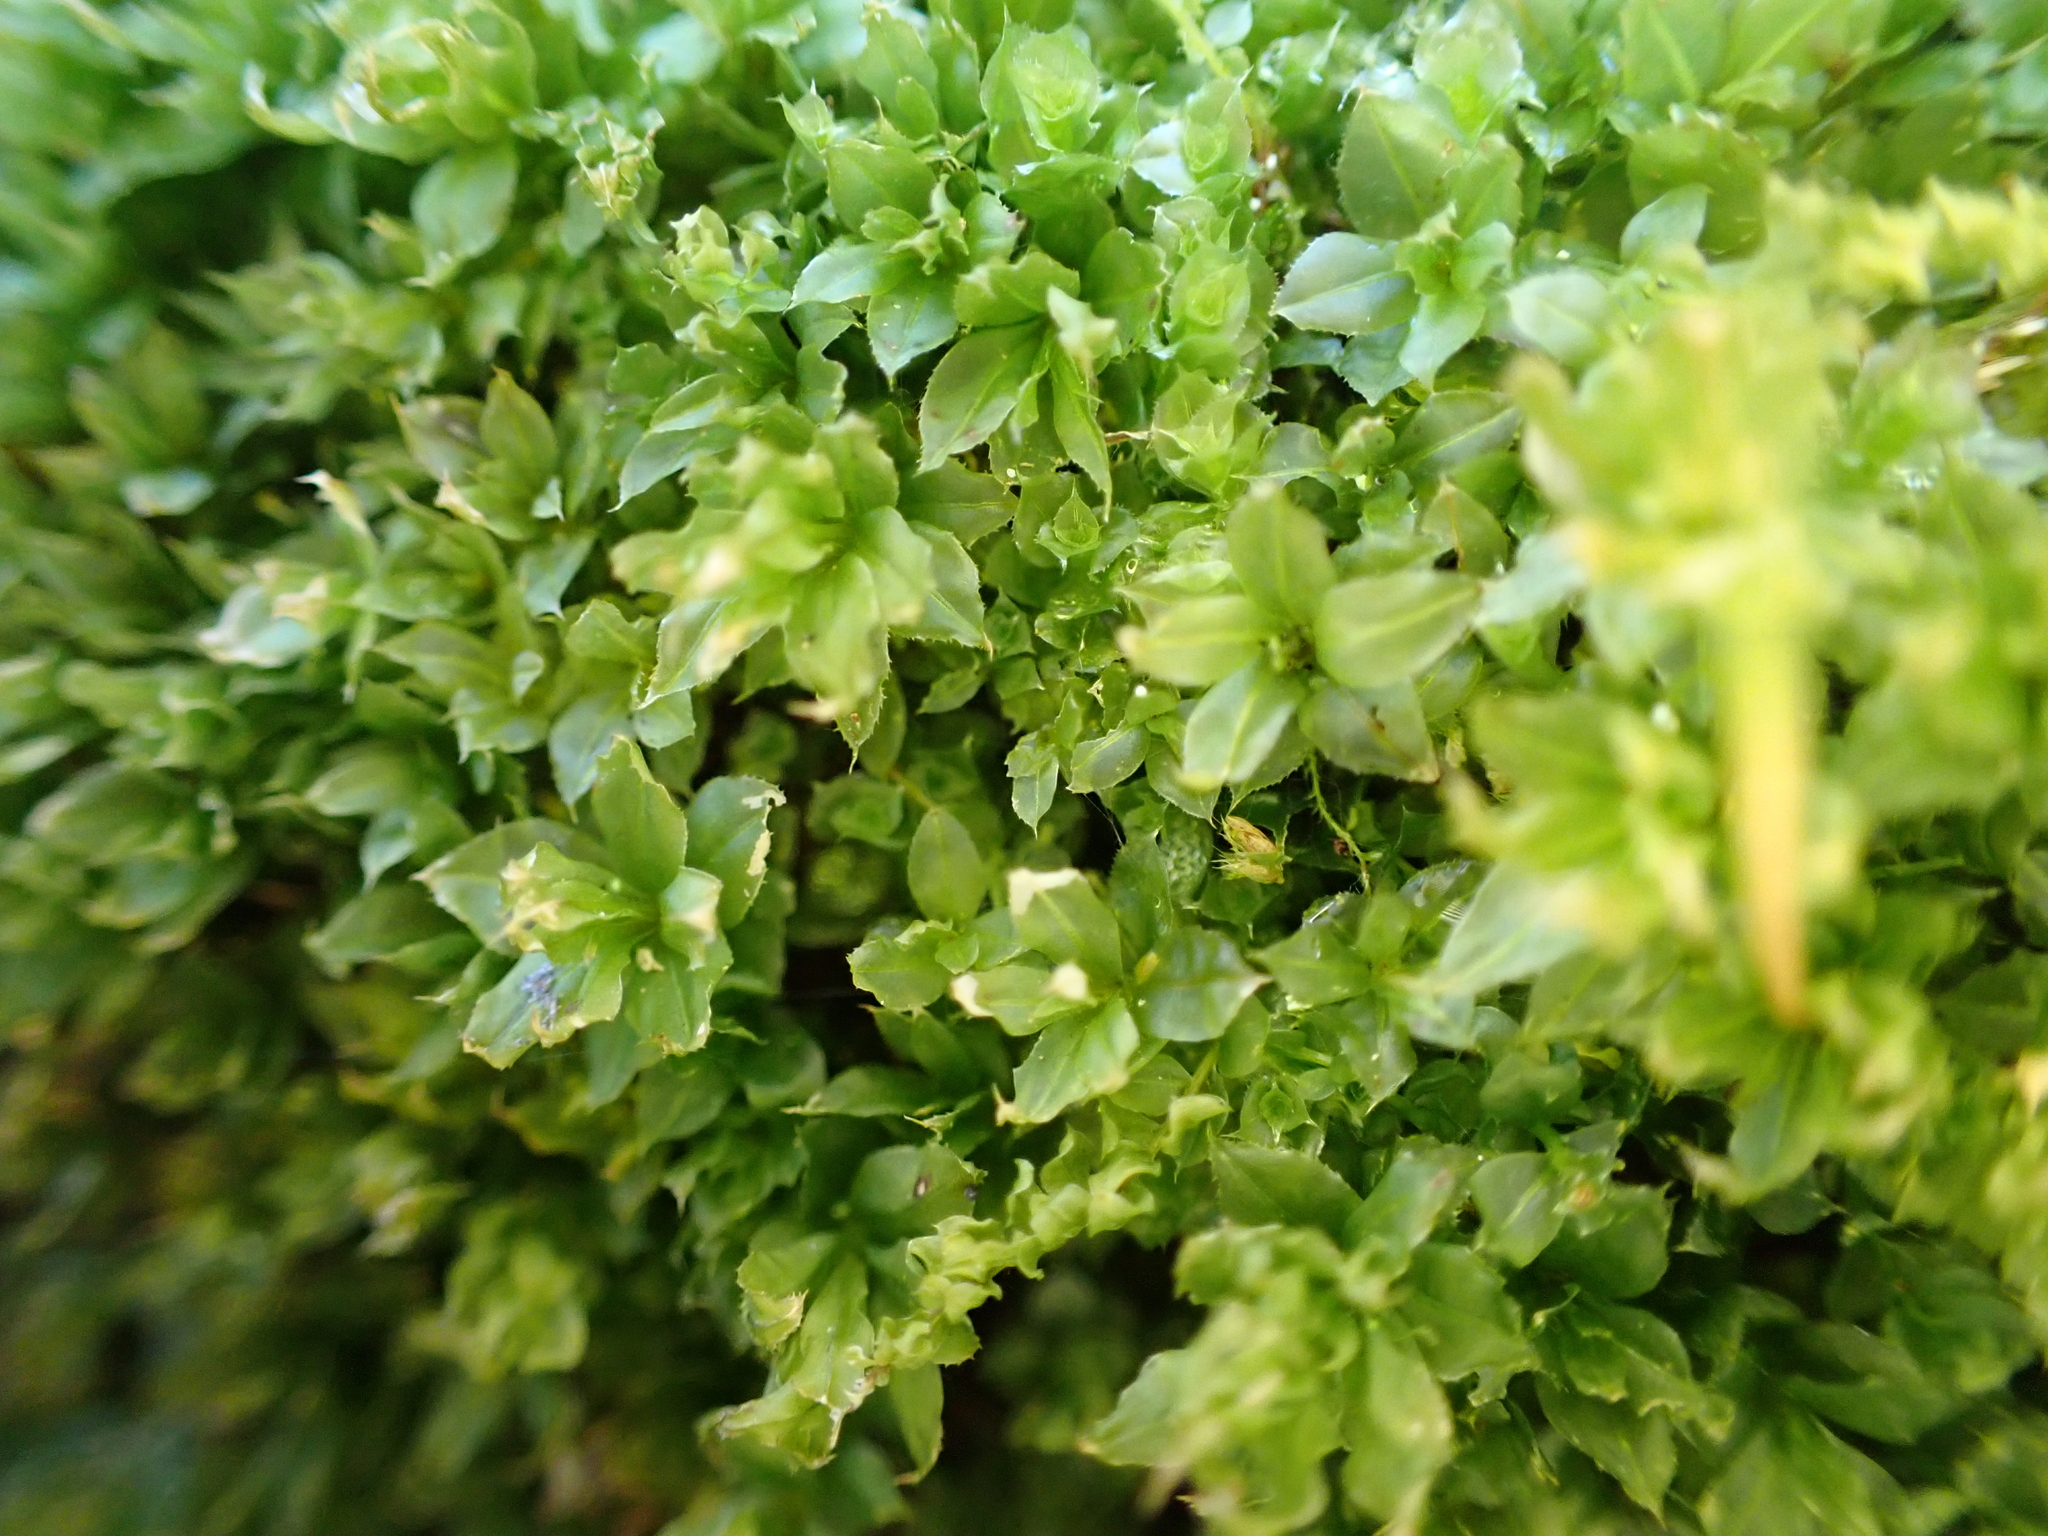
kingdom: Plantae
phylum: Bryophyta
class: Bryopsida
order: Bryales
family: Mniaceae
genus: Plagiomnium
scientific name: Plagiomnium cuspidatum
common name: Woodsy leafy moss
